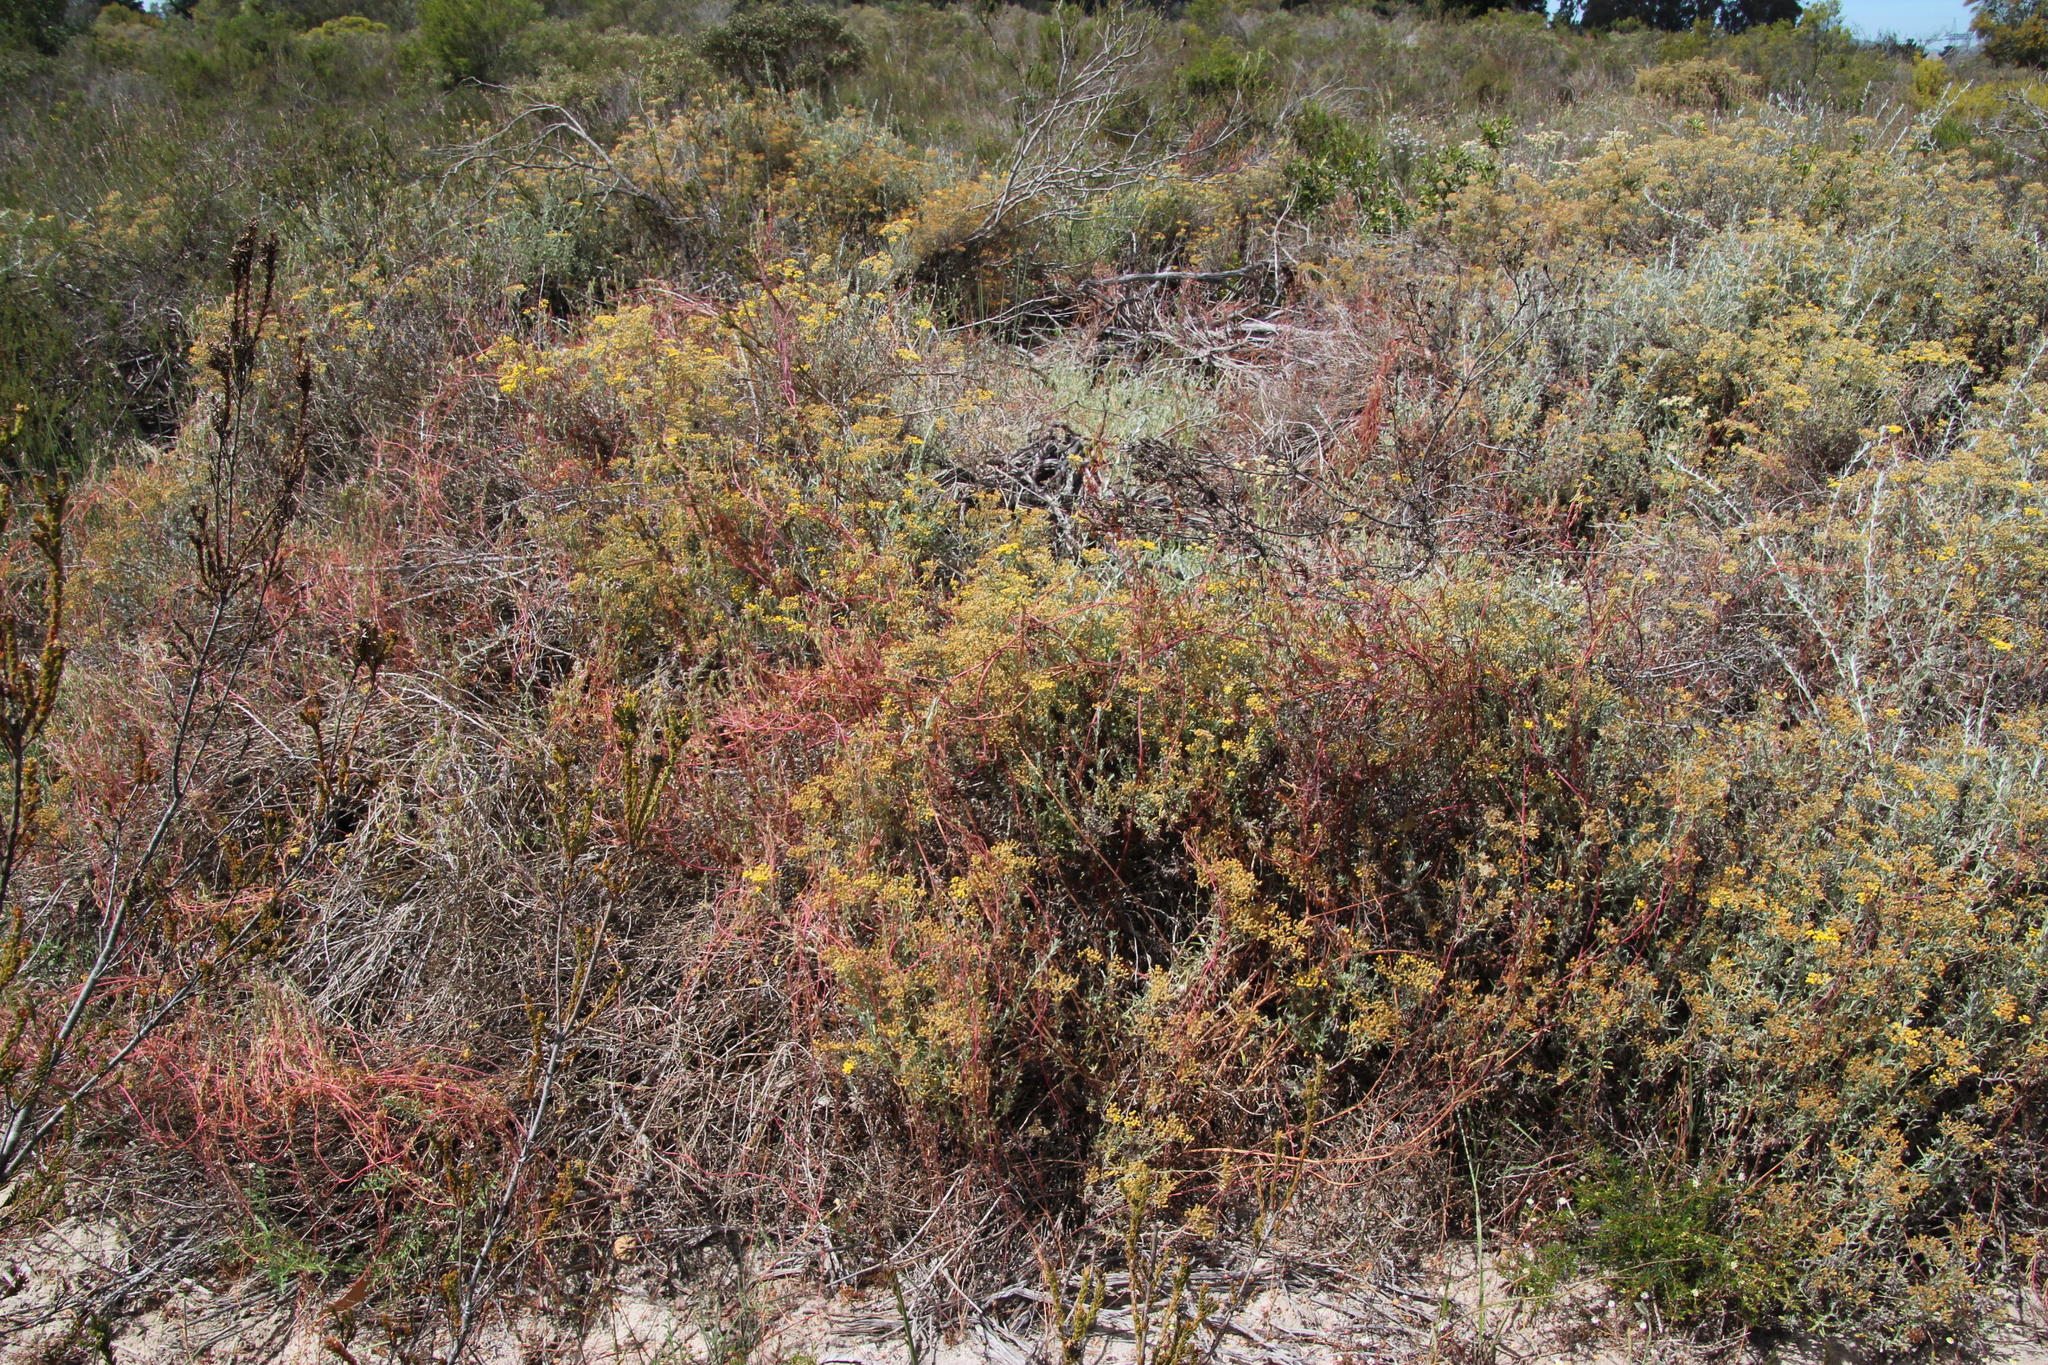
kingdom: Plantae
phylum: Tracheophyta
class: Magnoliopsida
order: Asterales
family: Asteraceae
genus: Helichrysum
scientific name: Helichrysum revolutum
